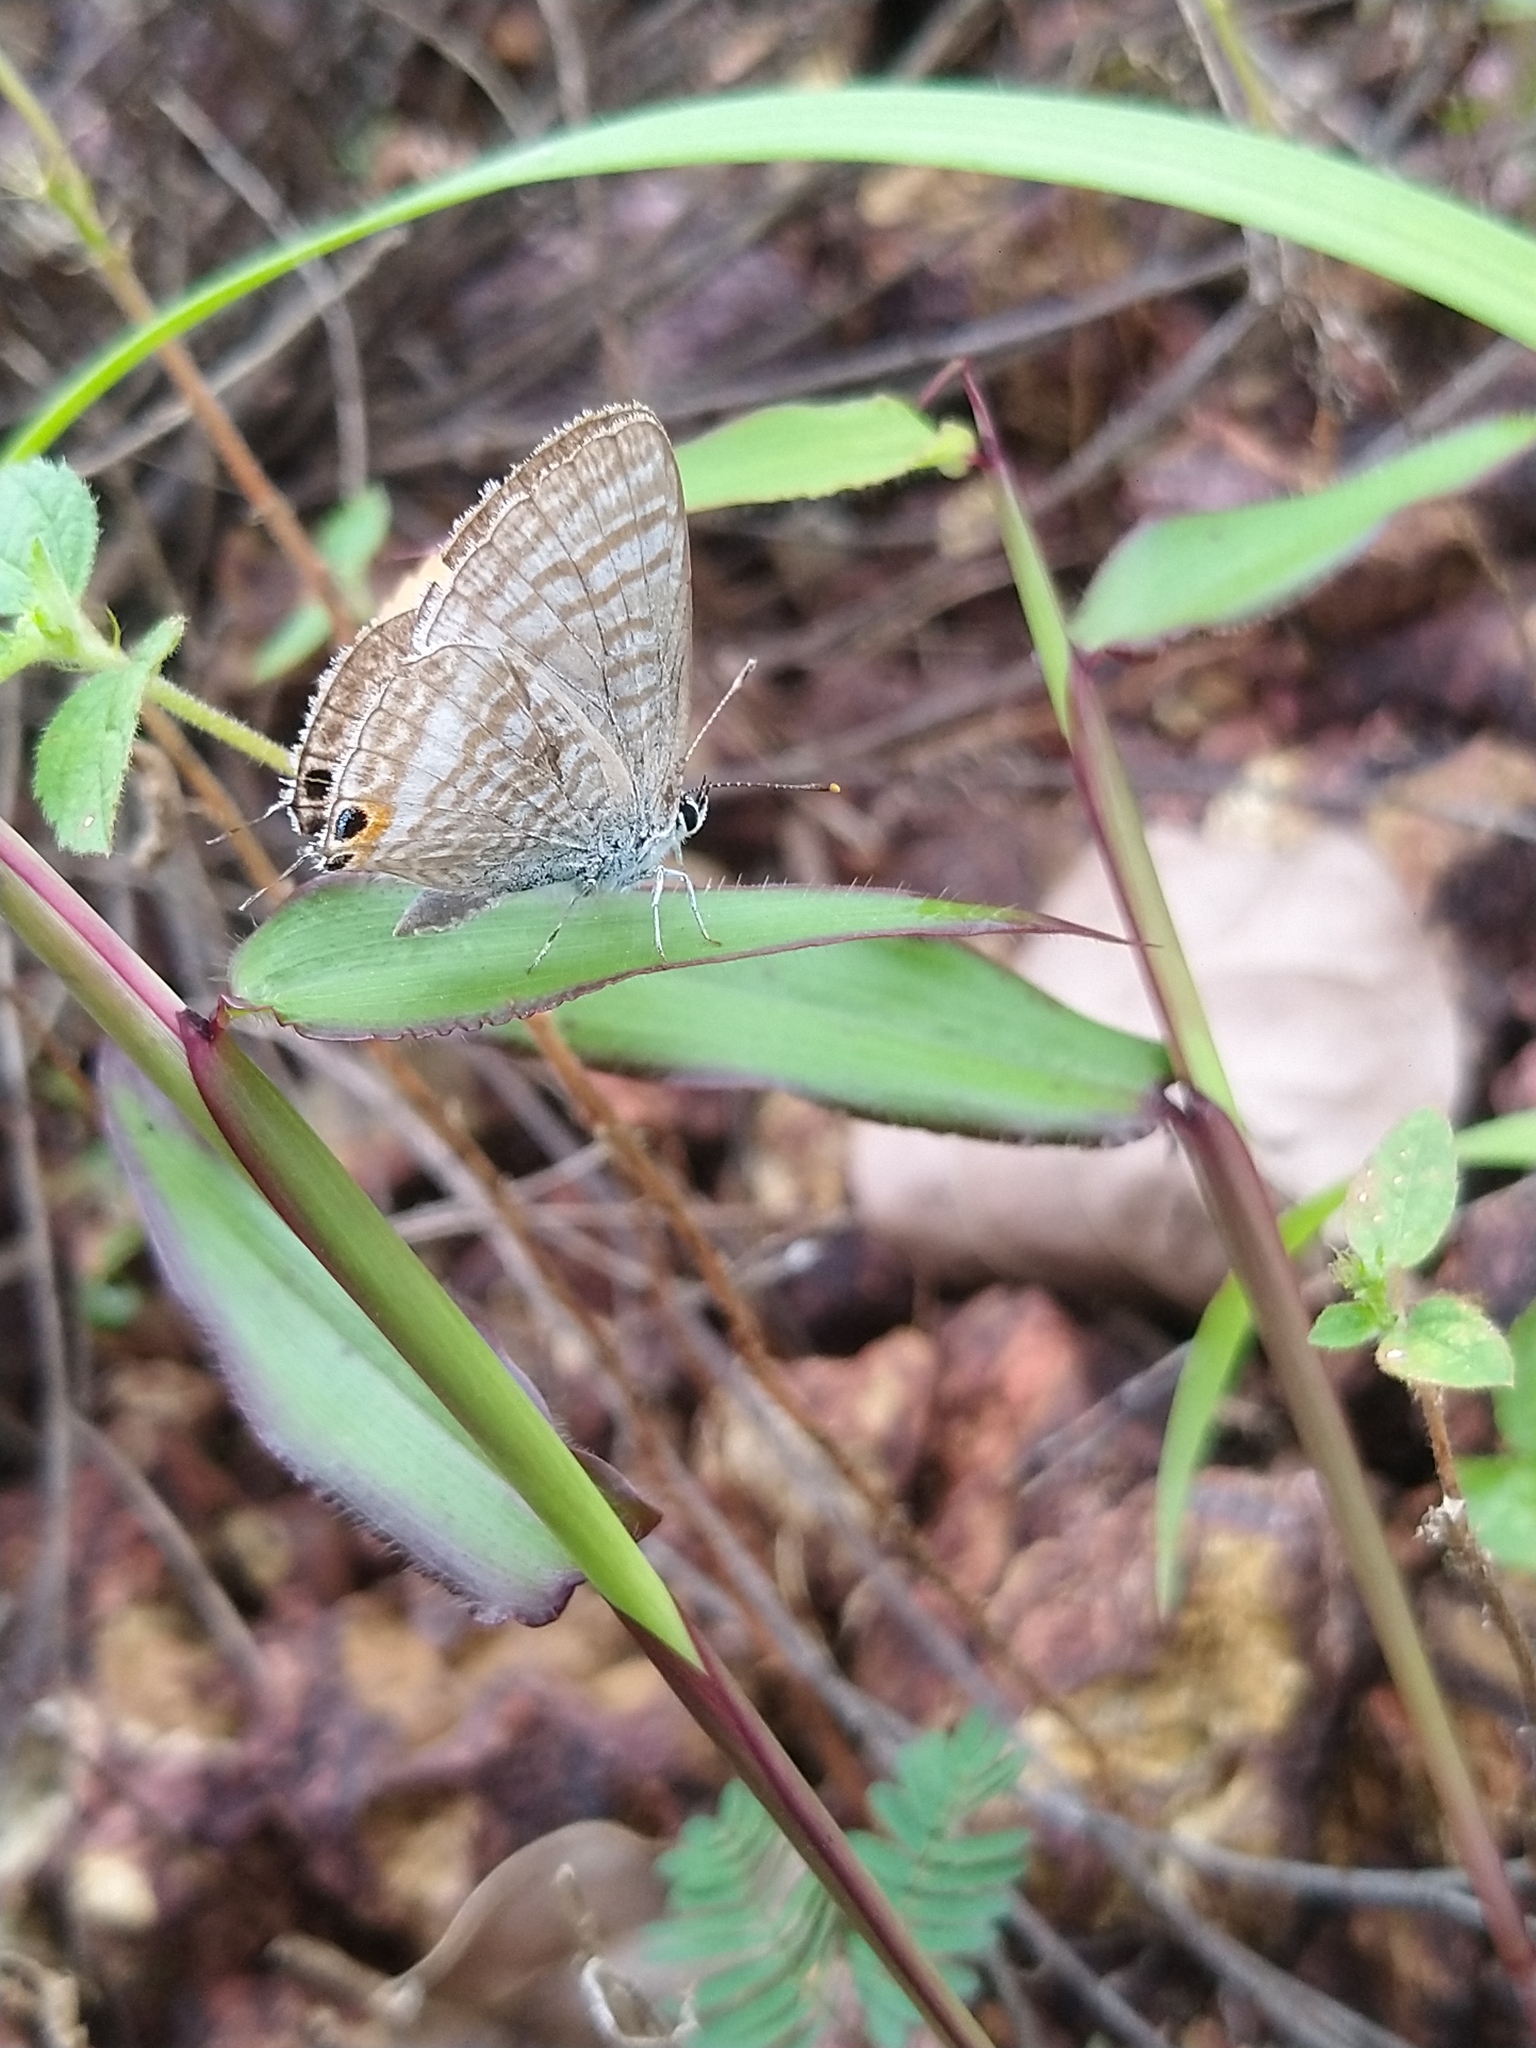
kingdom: Animalia
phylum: Arthropoda
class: Insecta
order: Lepidoptera
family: Lycaenidae
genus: Lampides
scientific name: Lampides boeticus
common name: Long-tailed blue
